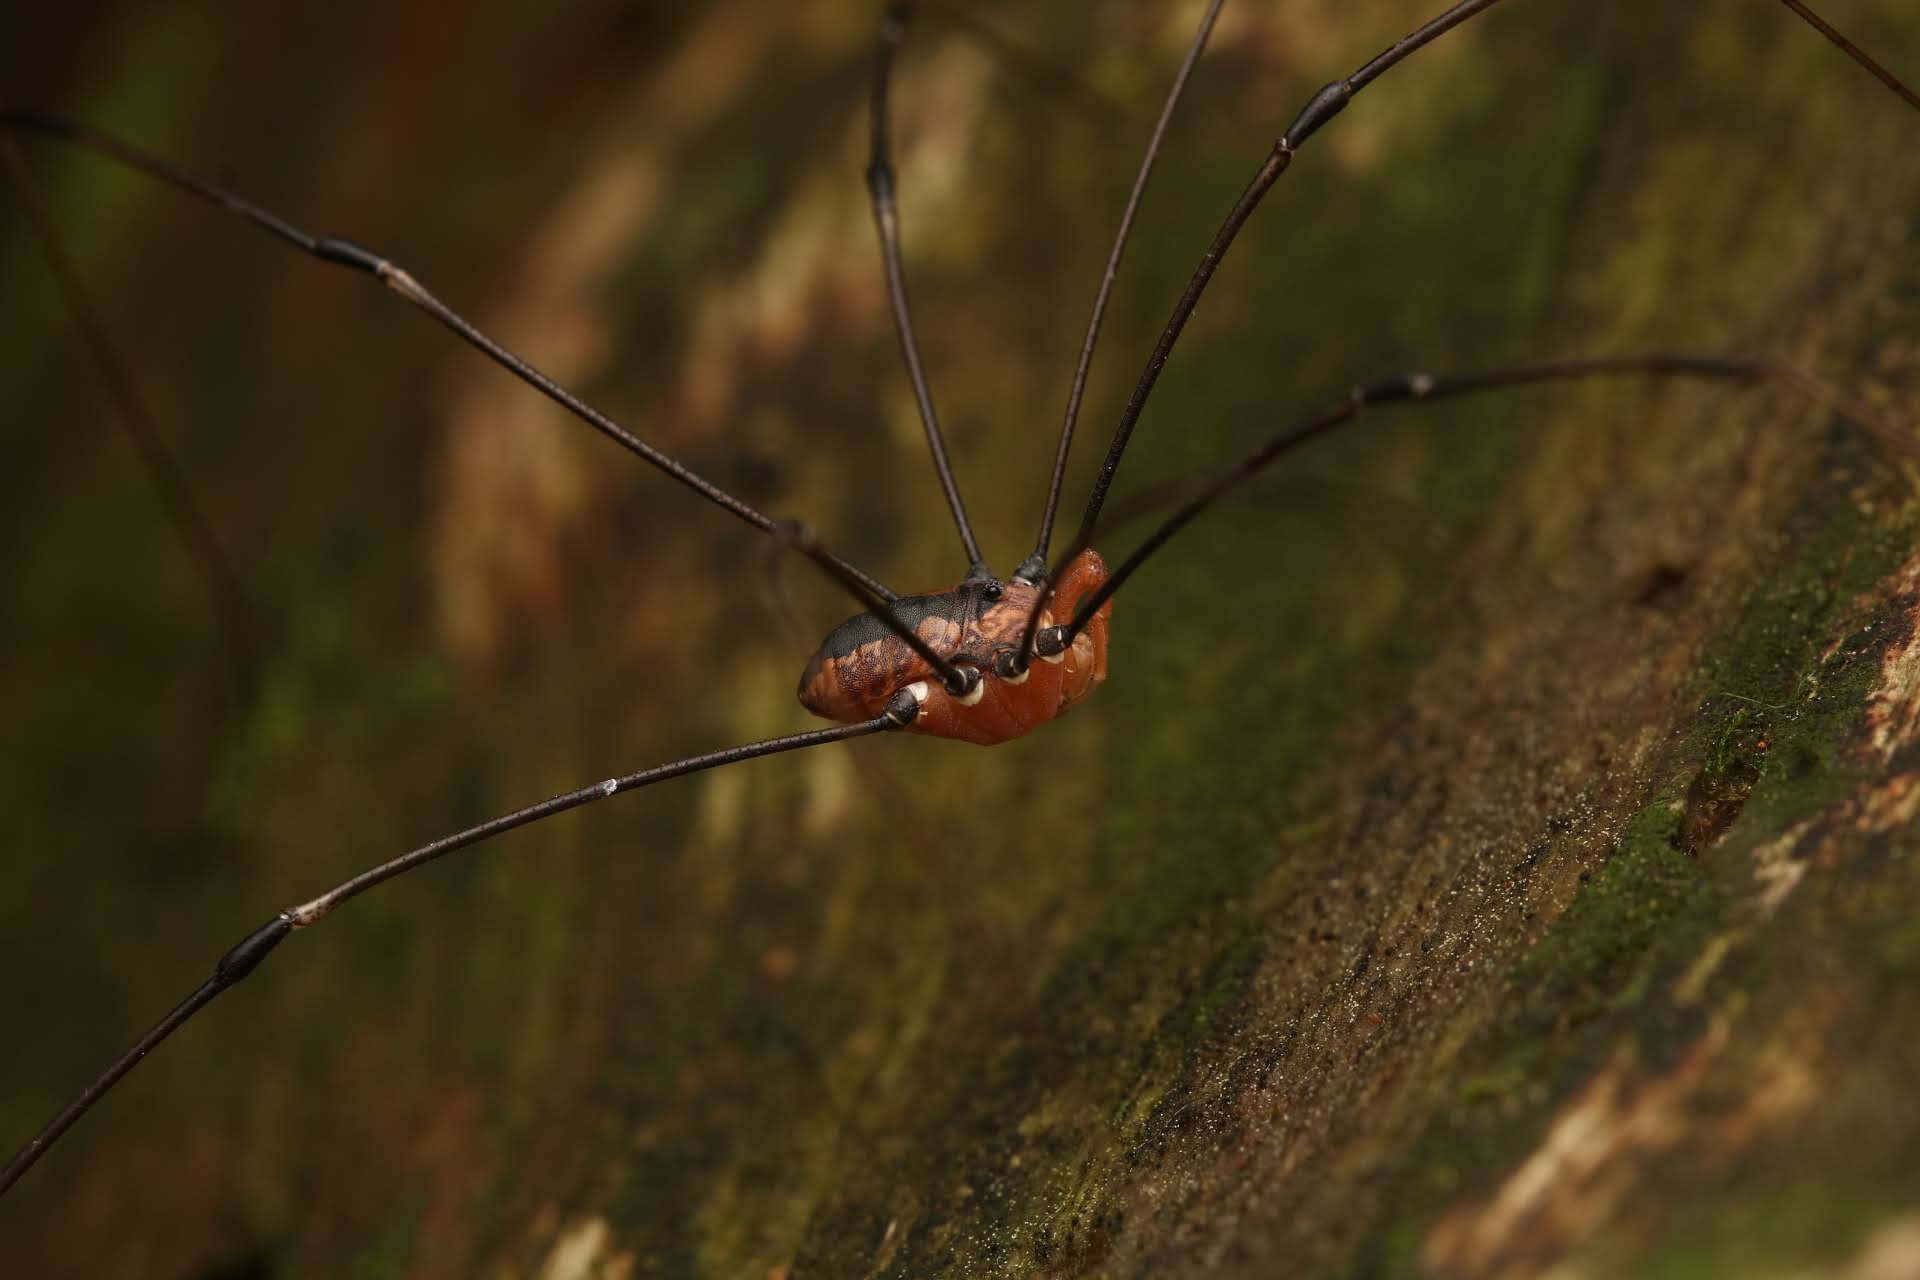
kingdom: Animalia
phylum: Arthropoda
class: Arachnida
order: Opiliones
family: Sclerosomatidae
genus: Leiobunum
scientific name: Leiobunum vittatum
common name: Eastern harvestman
